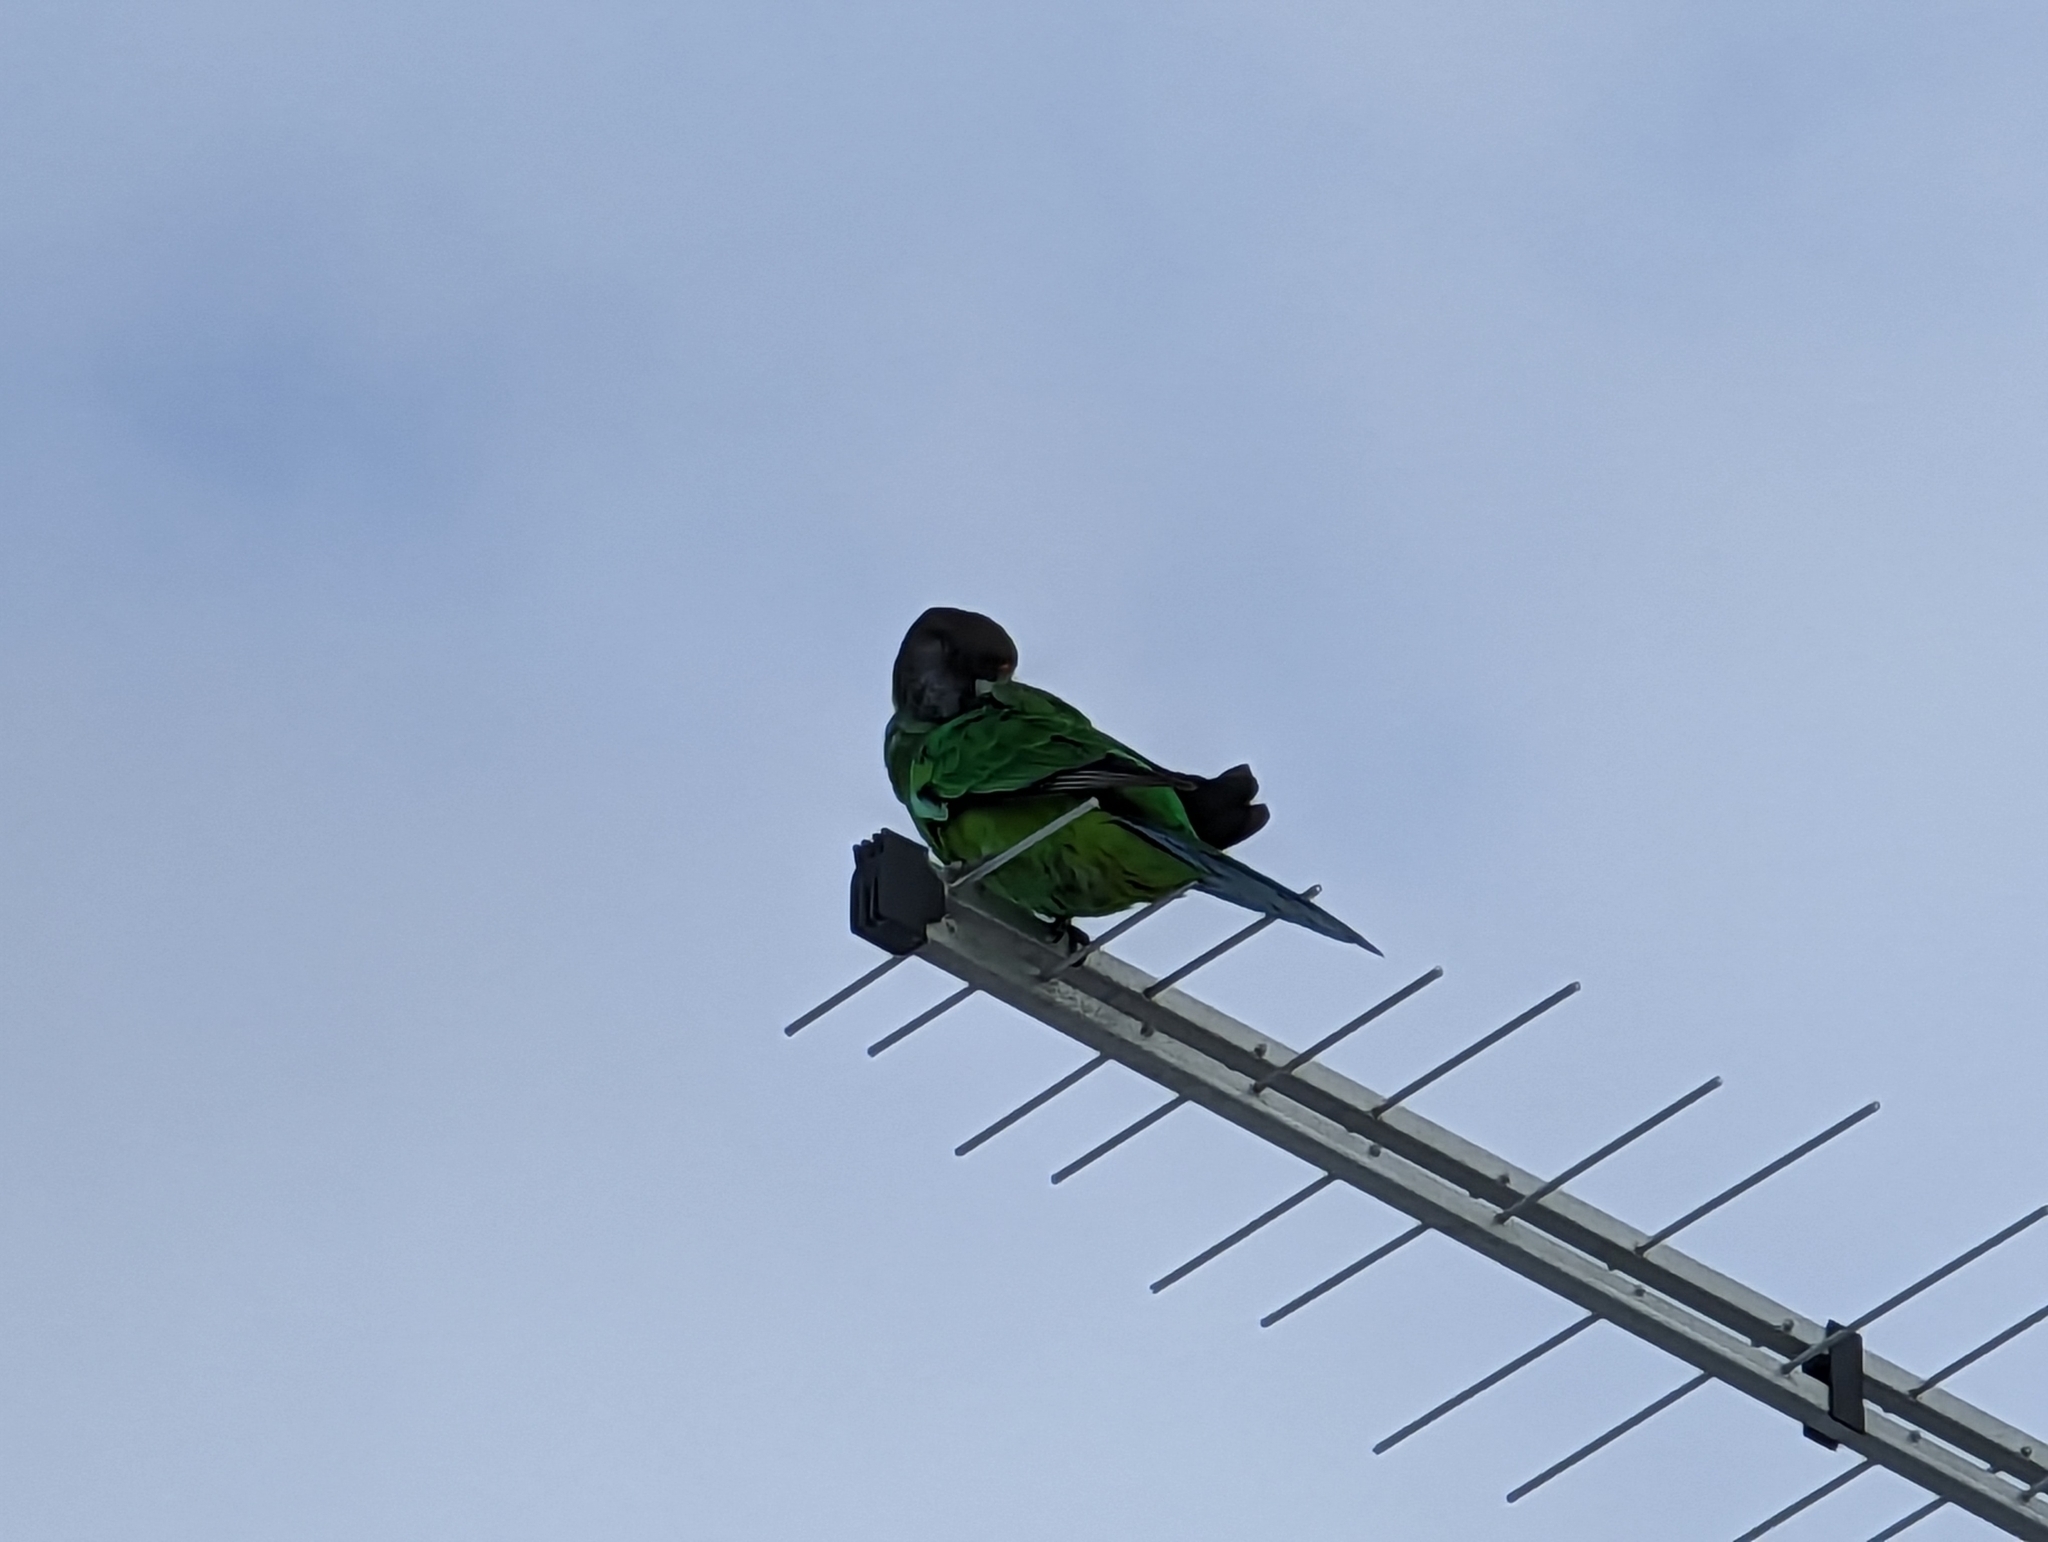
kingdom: Animalia
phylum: Chordata
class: Aves
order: Psittaciformes
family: Psittacidae
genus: Barnardius
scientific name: Barnardius zonarius
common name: Australian ringneck
